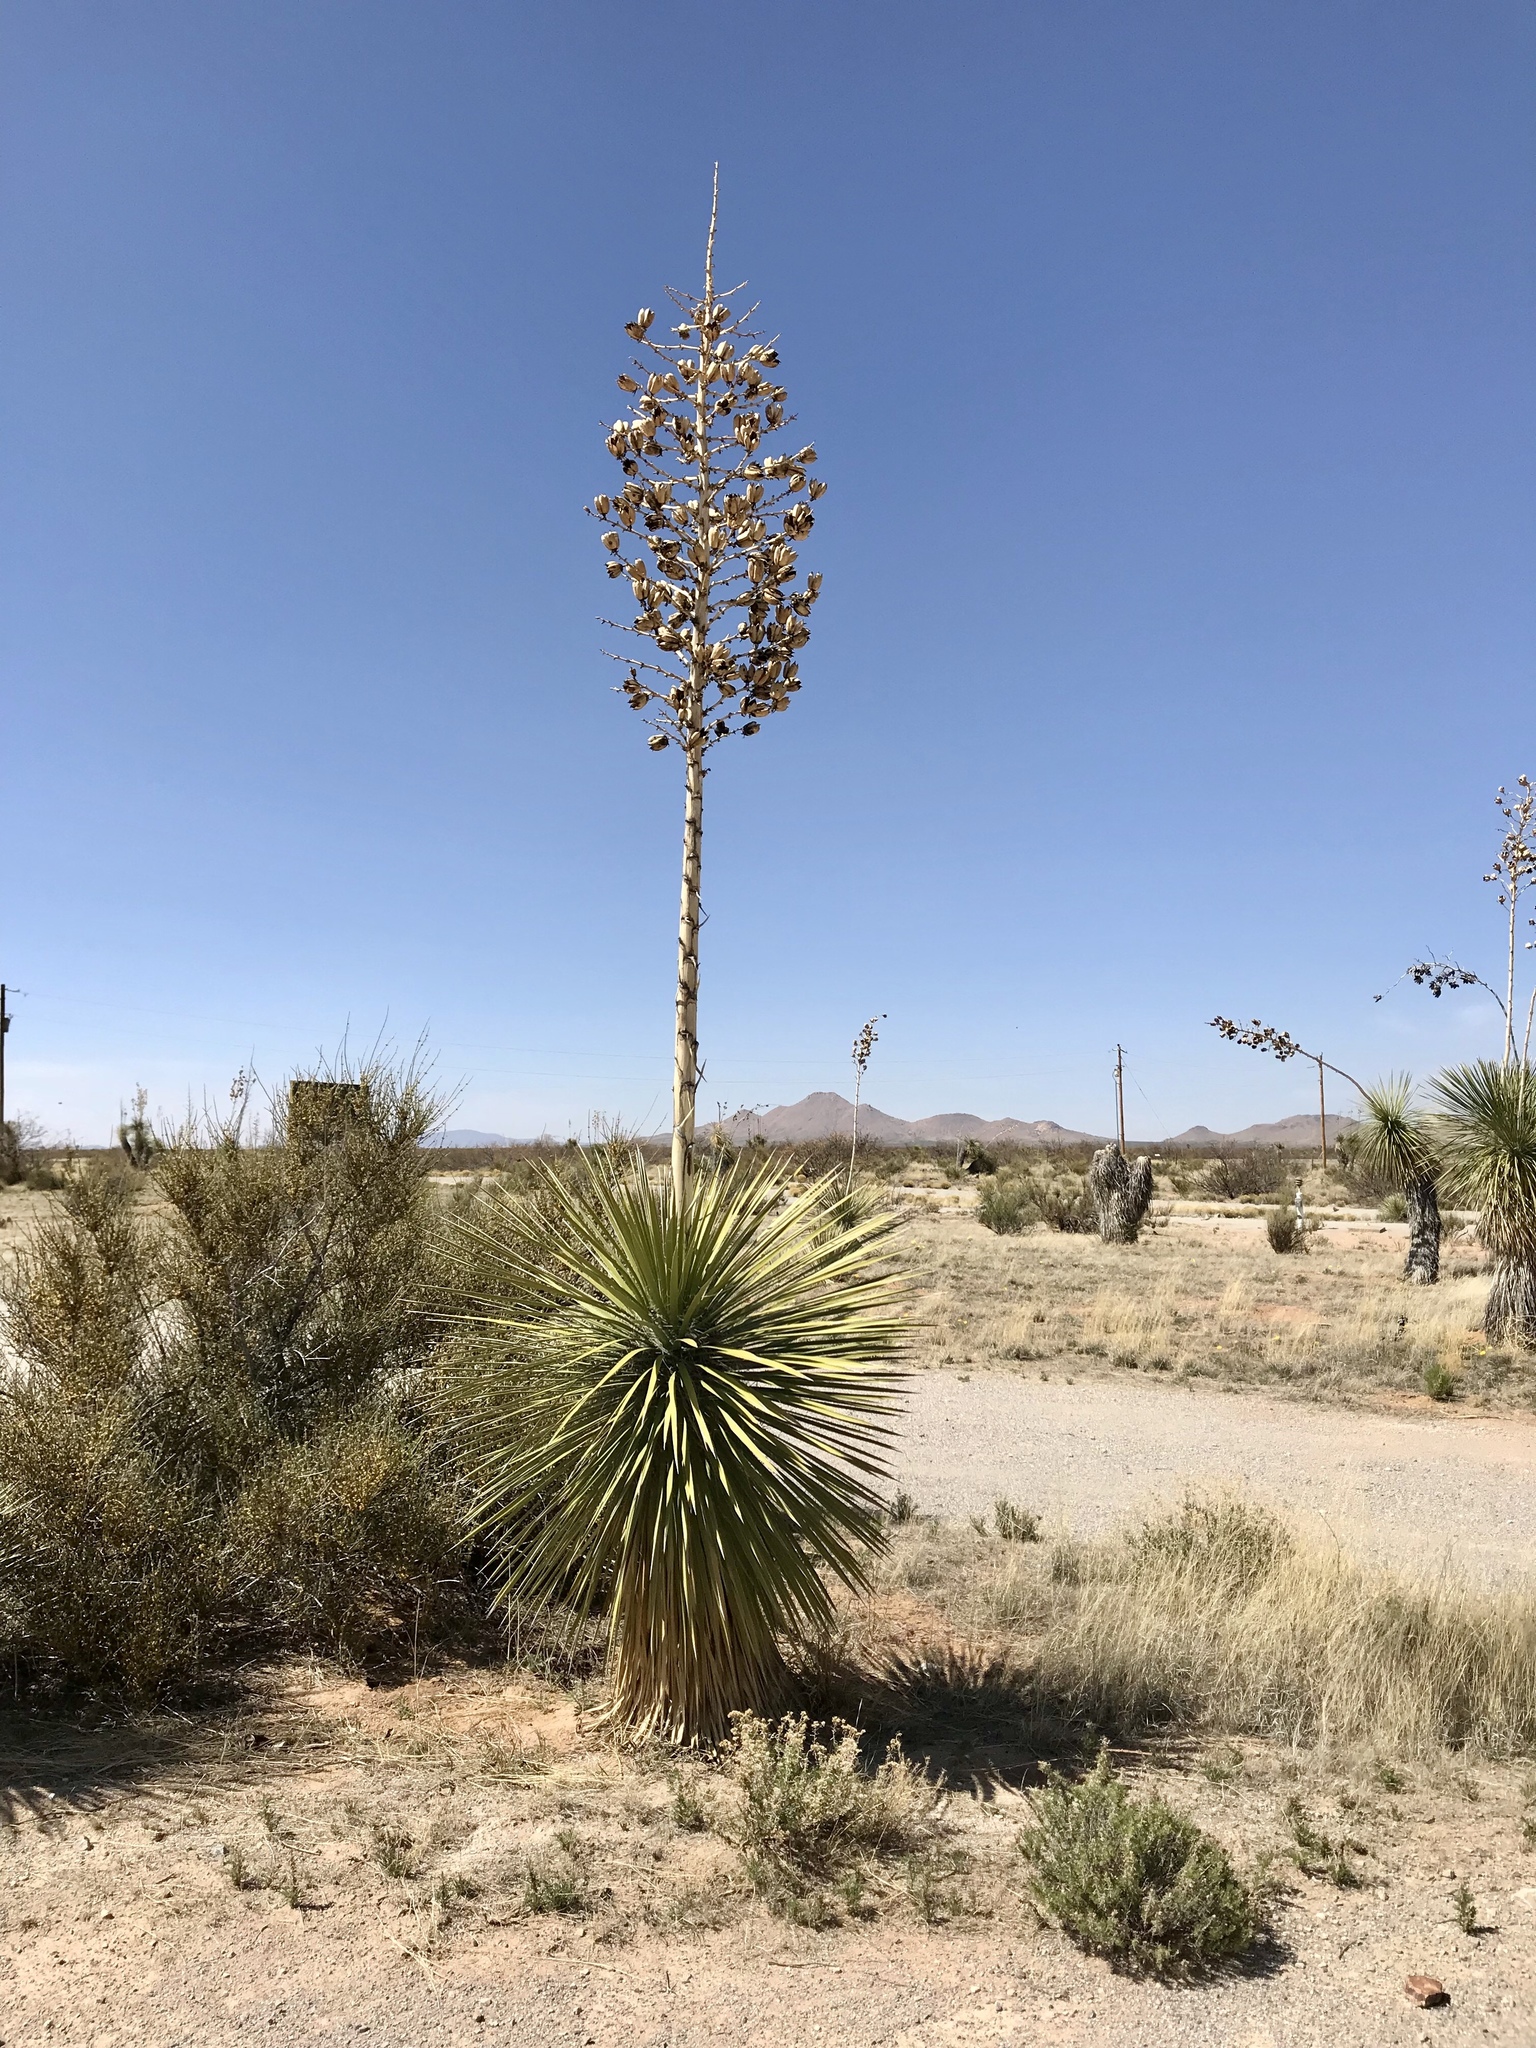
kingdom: Plantae
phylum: Tracheophyta
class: Liliopsida
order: Asparagales
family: Asparagaceae
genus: Yucca
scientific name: Yucca elata
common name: Palmella
